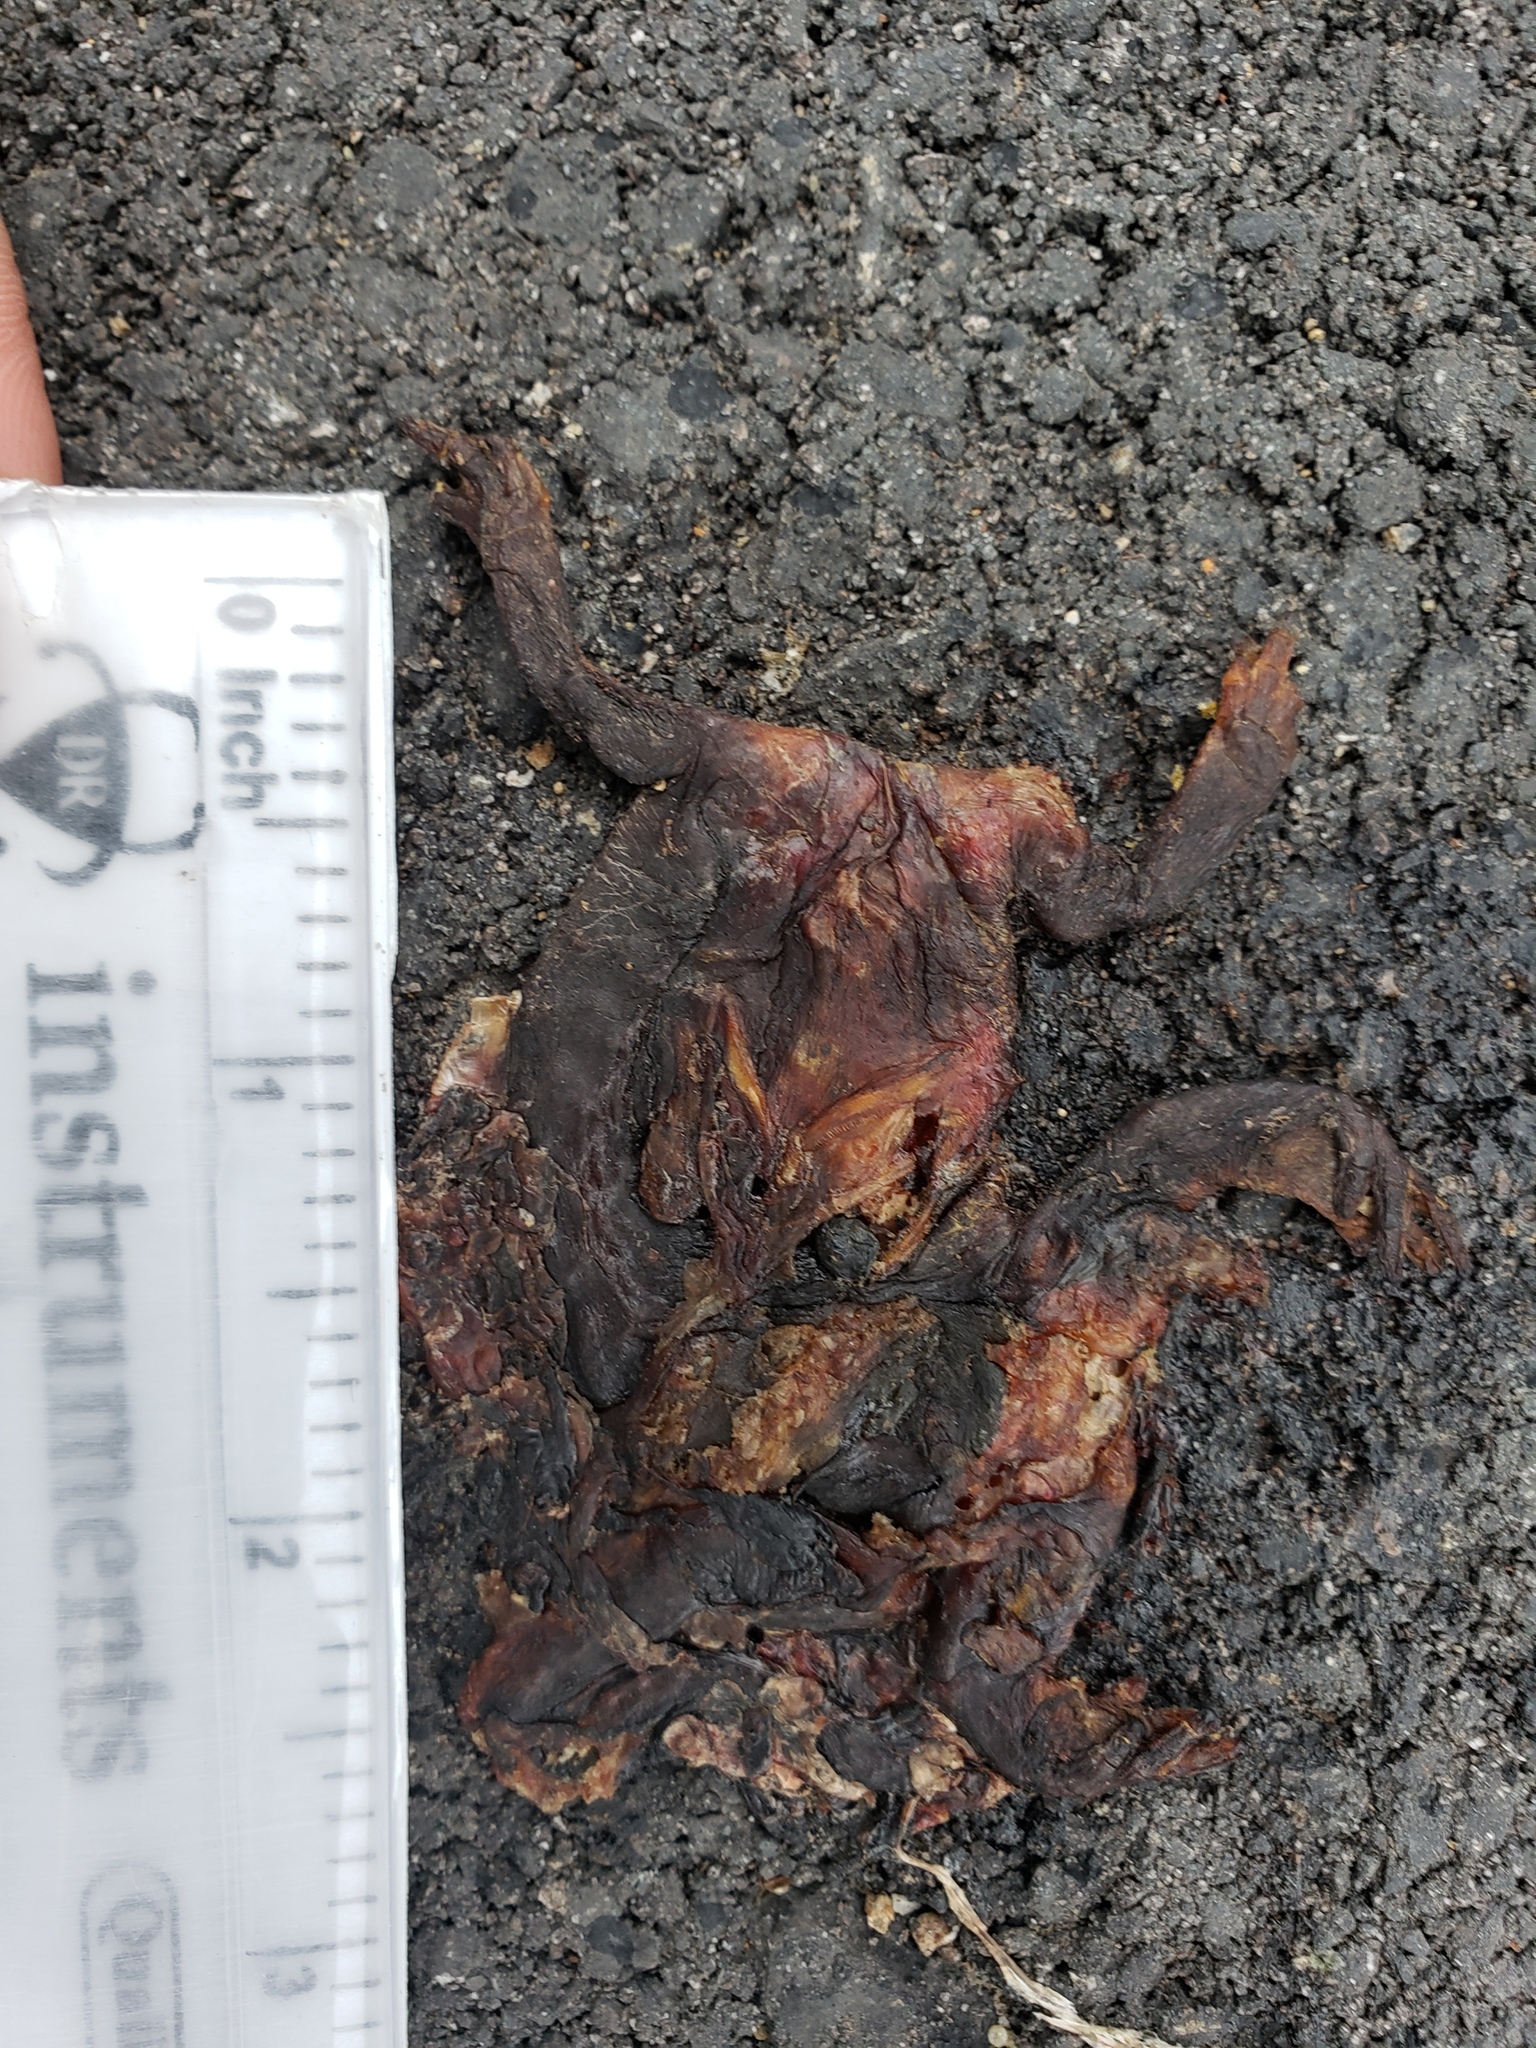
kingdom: Animalia
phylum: Chordata
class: Amphibia
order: Caudata
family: Salamandridae
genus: Taricha
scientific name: Taricha
